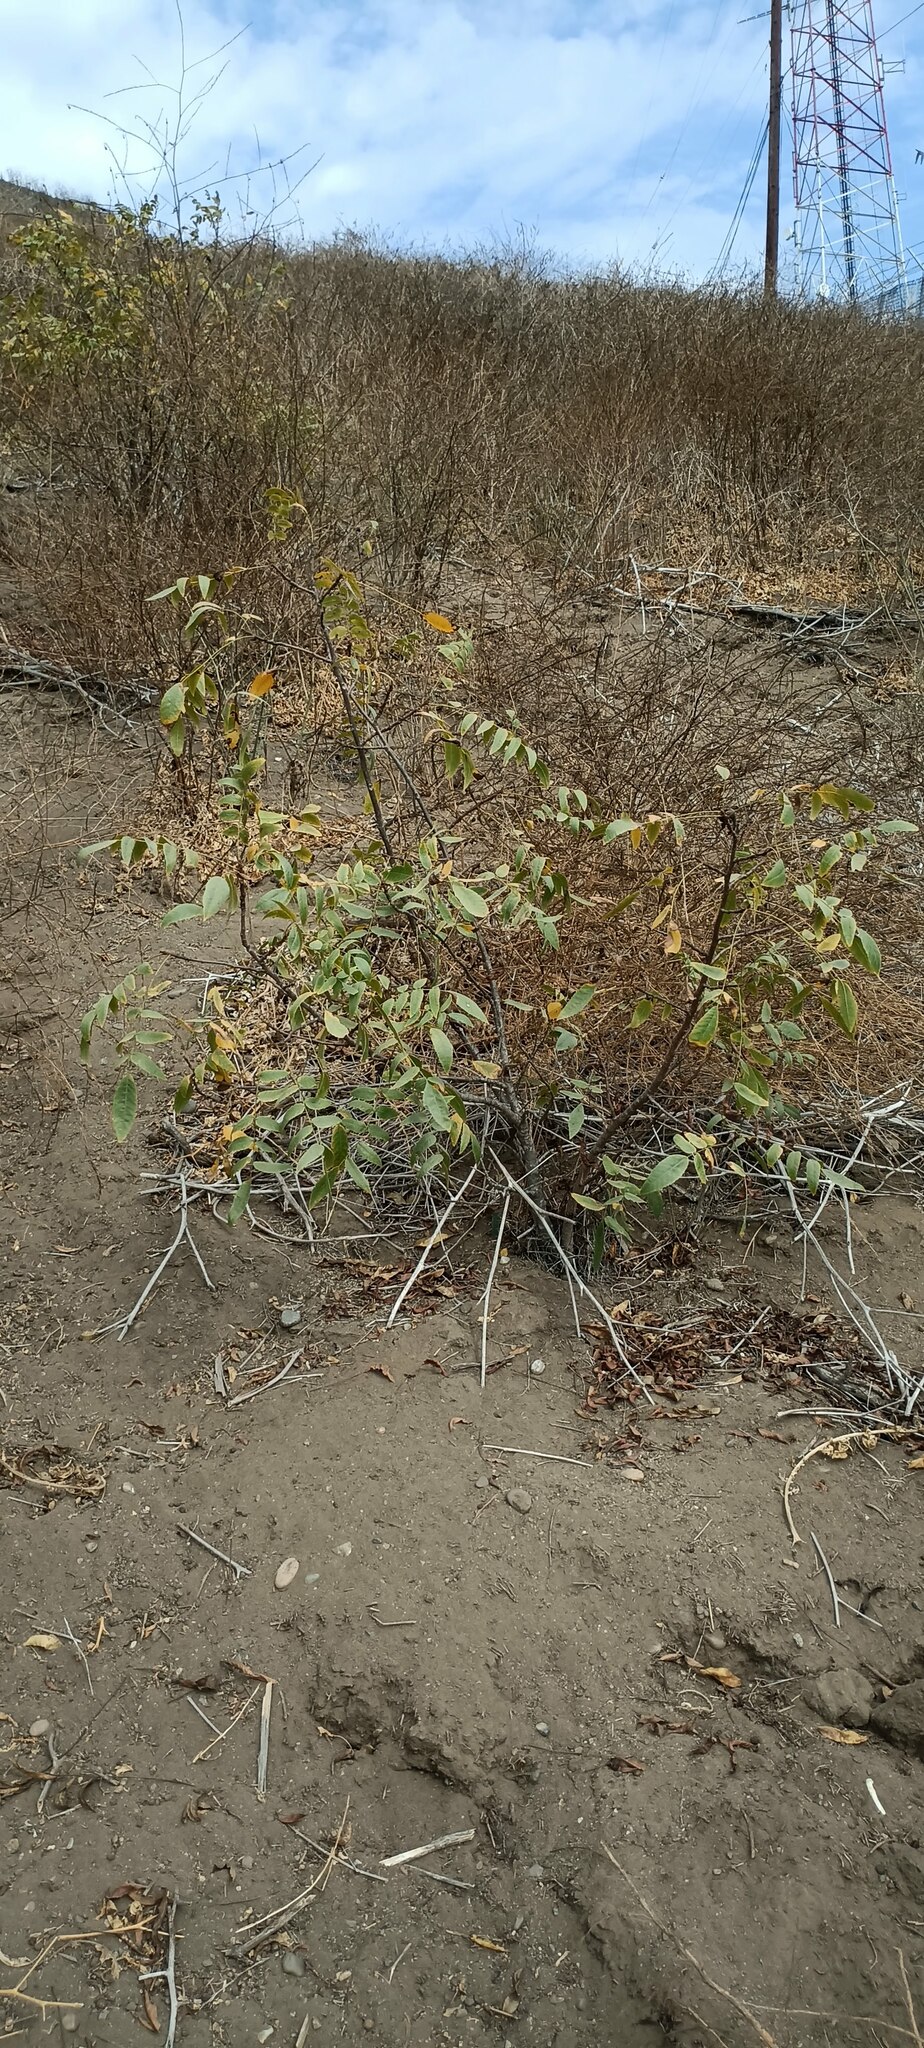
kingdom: Plantae
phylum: Tracheophyta
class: Magnoliopsida
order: Fagales
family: Juglandaceae
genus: Juglans
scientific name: Juglans californica
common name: Southern california black walnut
